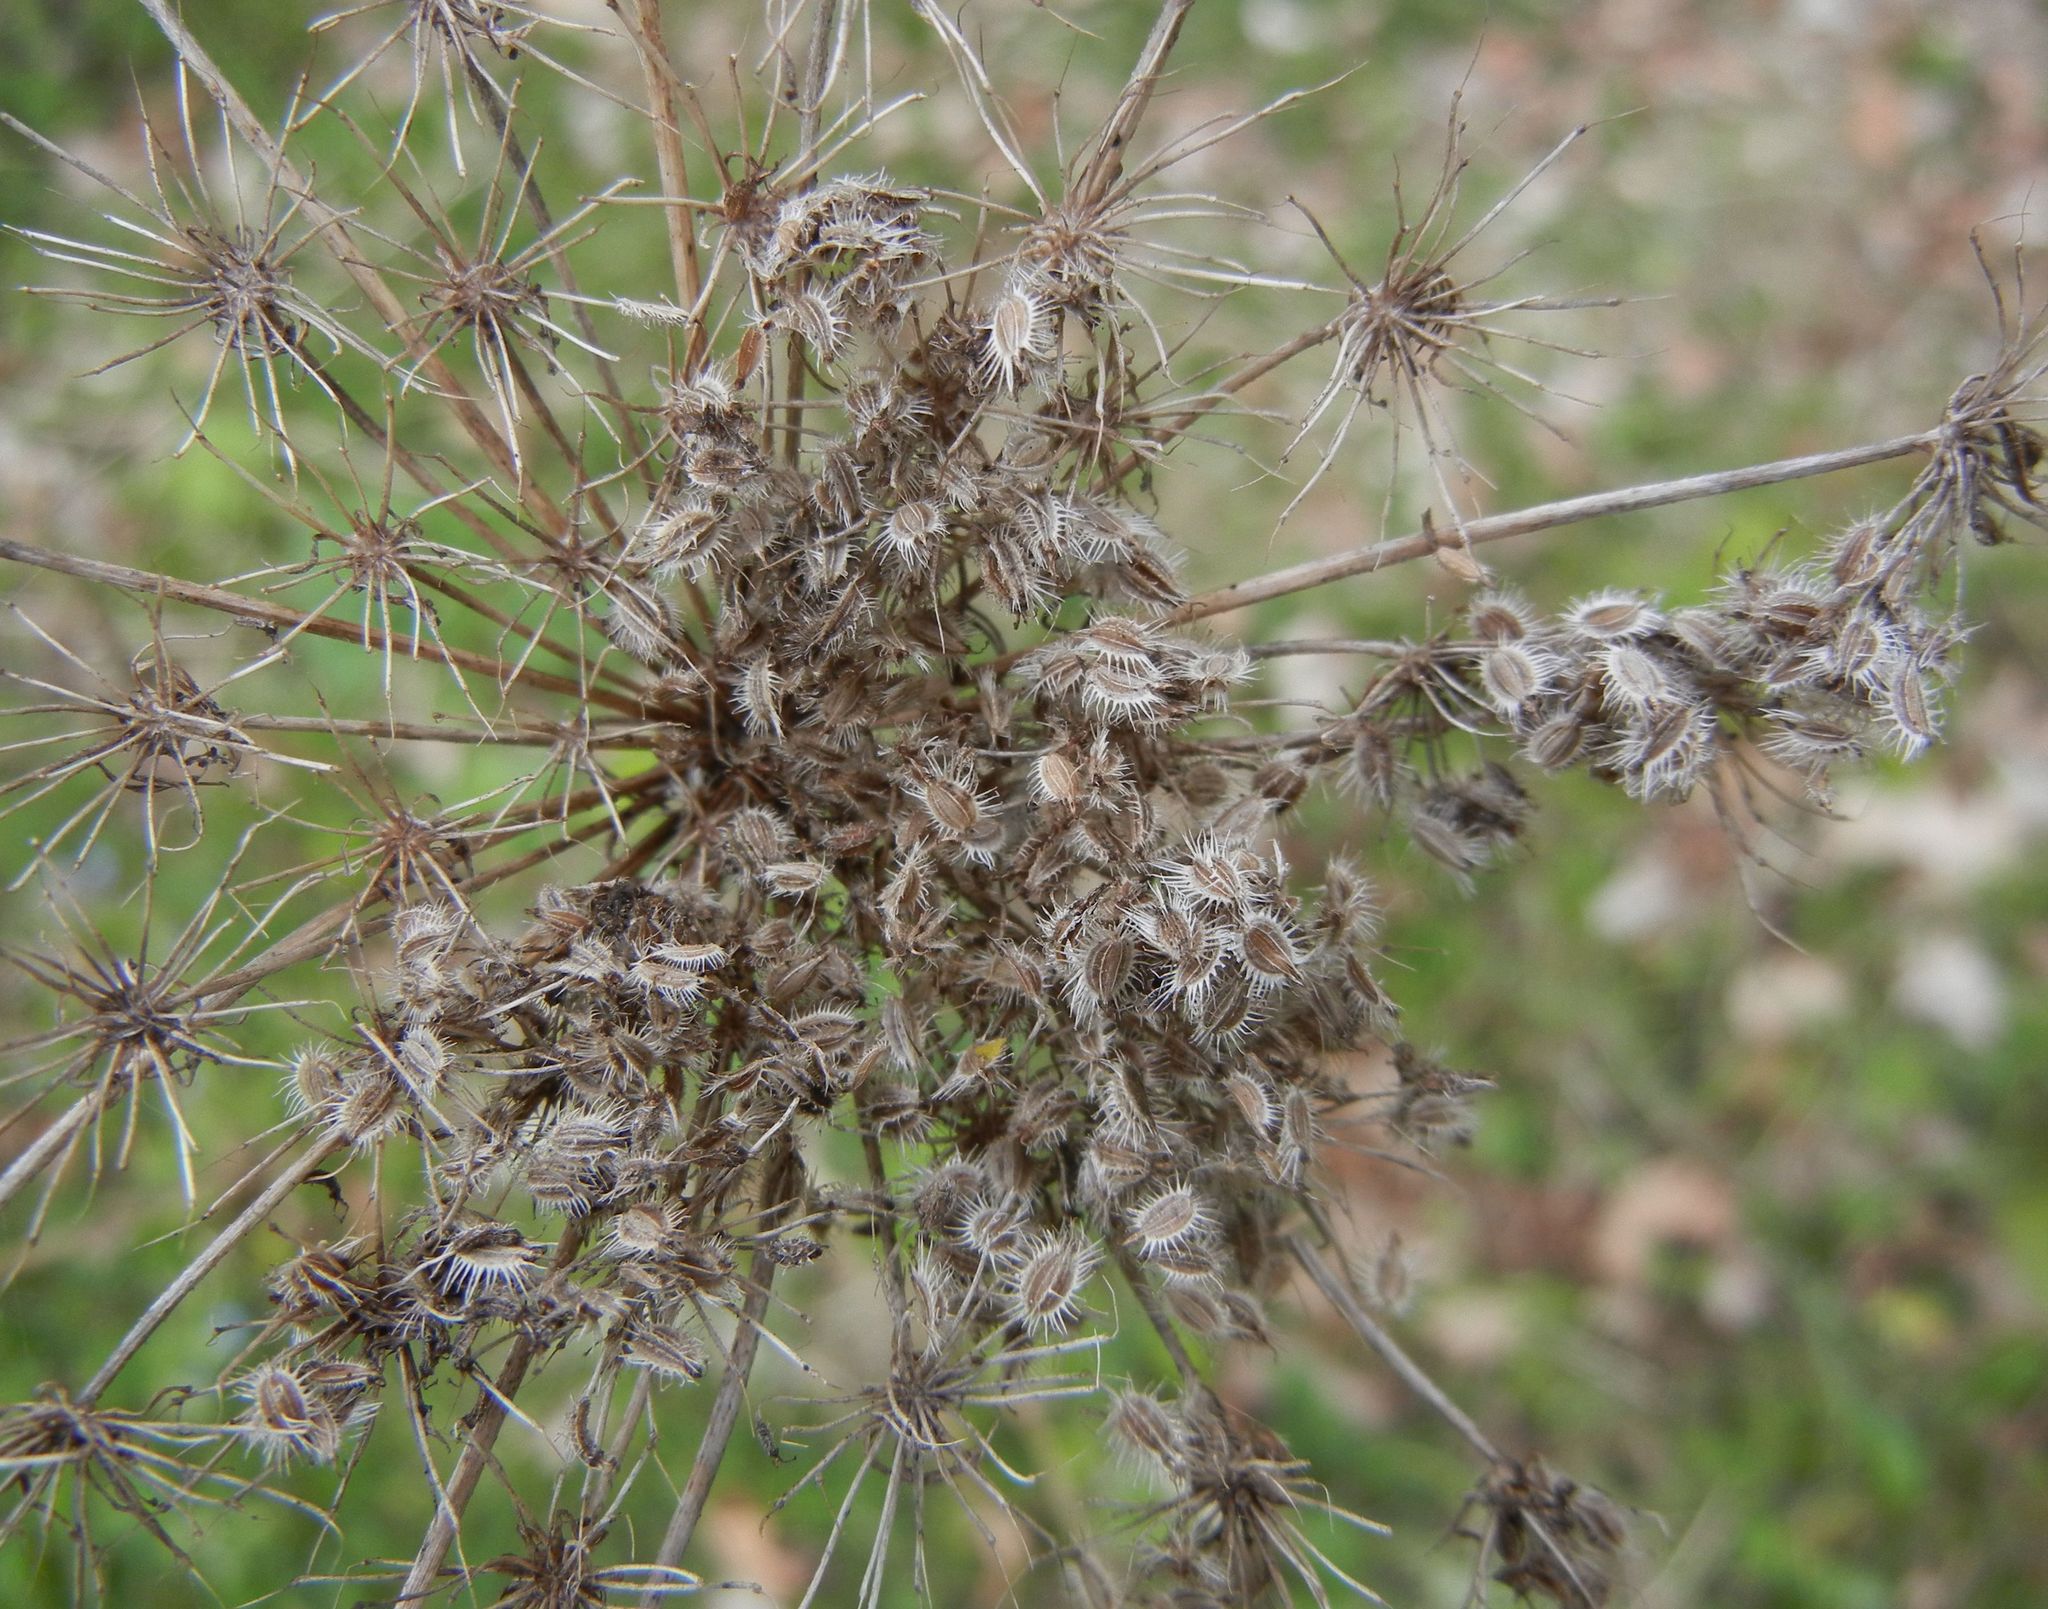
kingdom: Plantae
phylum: Tracheophyta
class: Magnoliopsida
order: Apiales
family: Apiaceae
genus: Daucus
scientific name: Daucus carota
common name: Wild carrot
